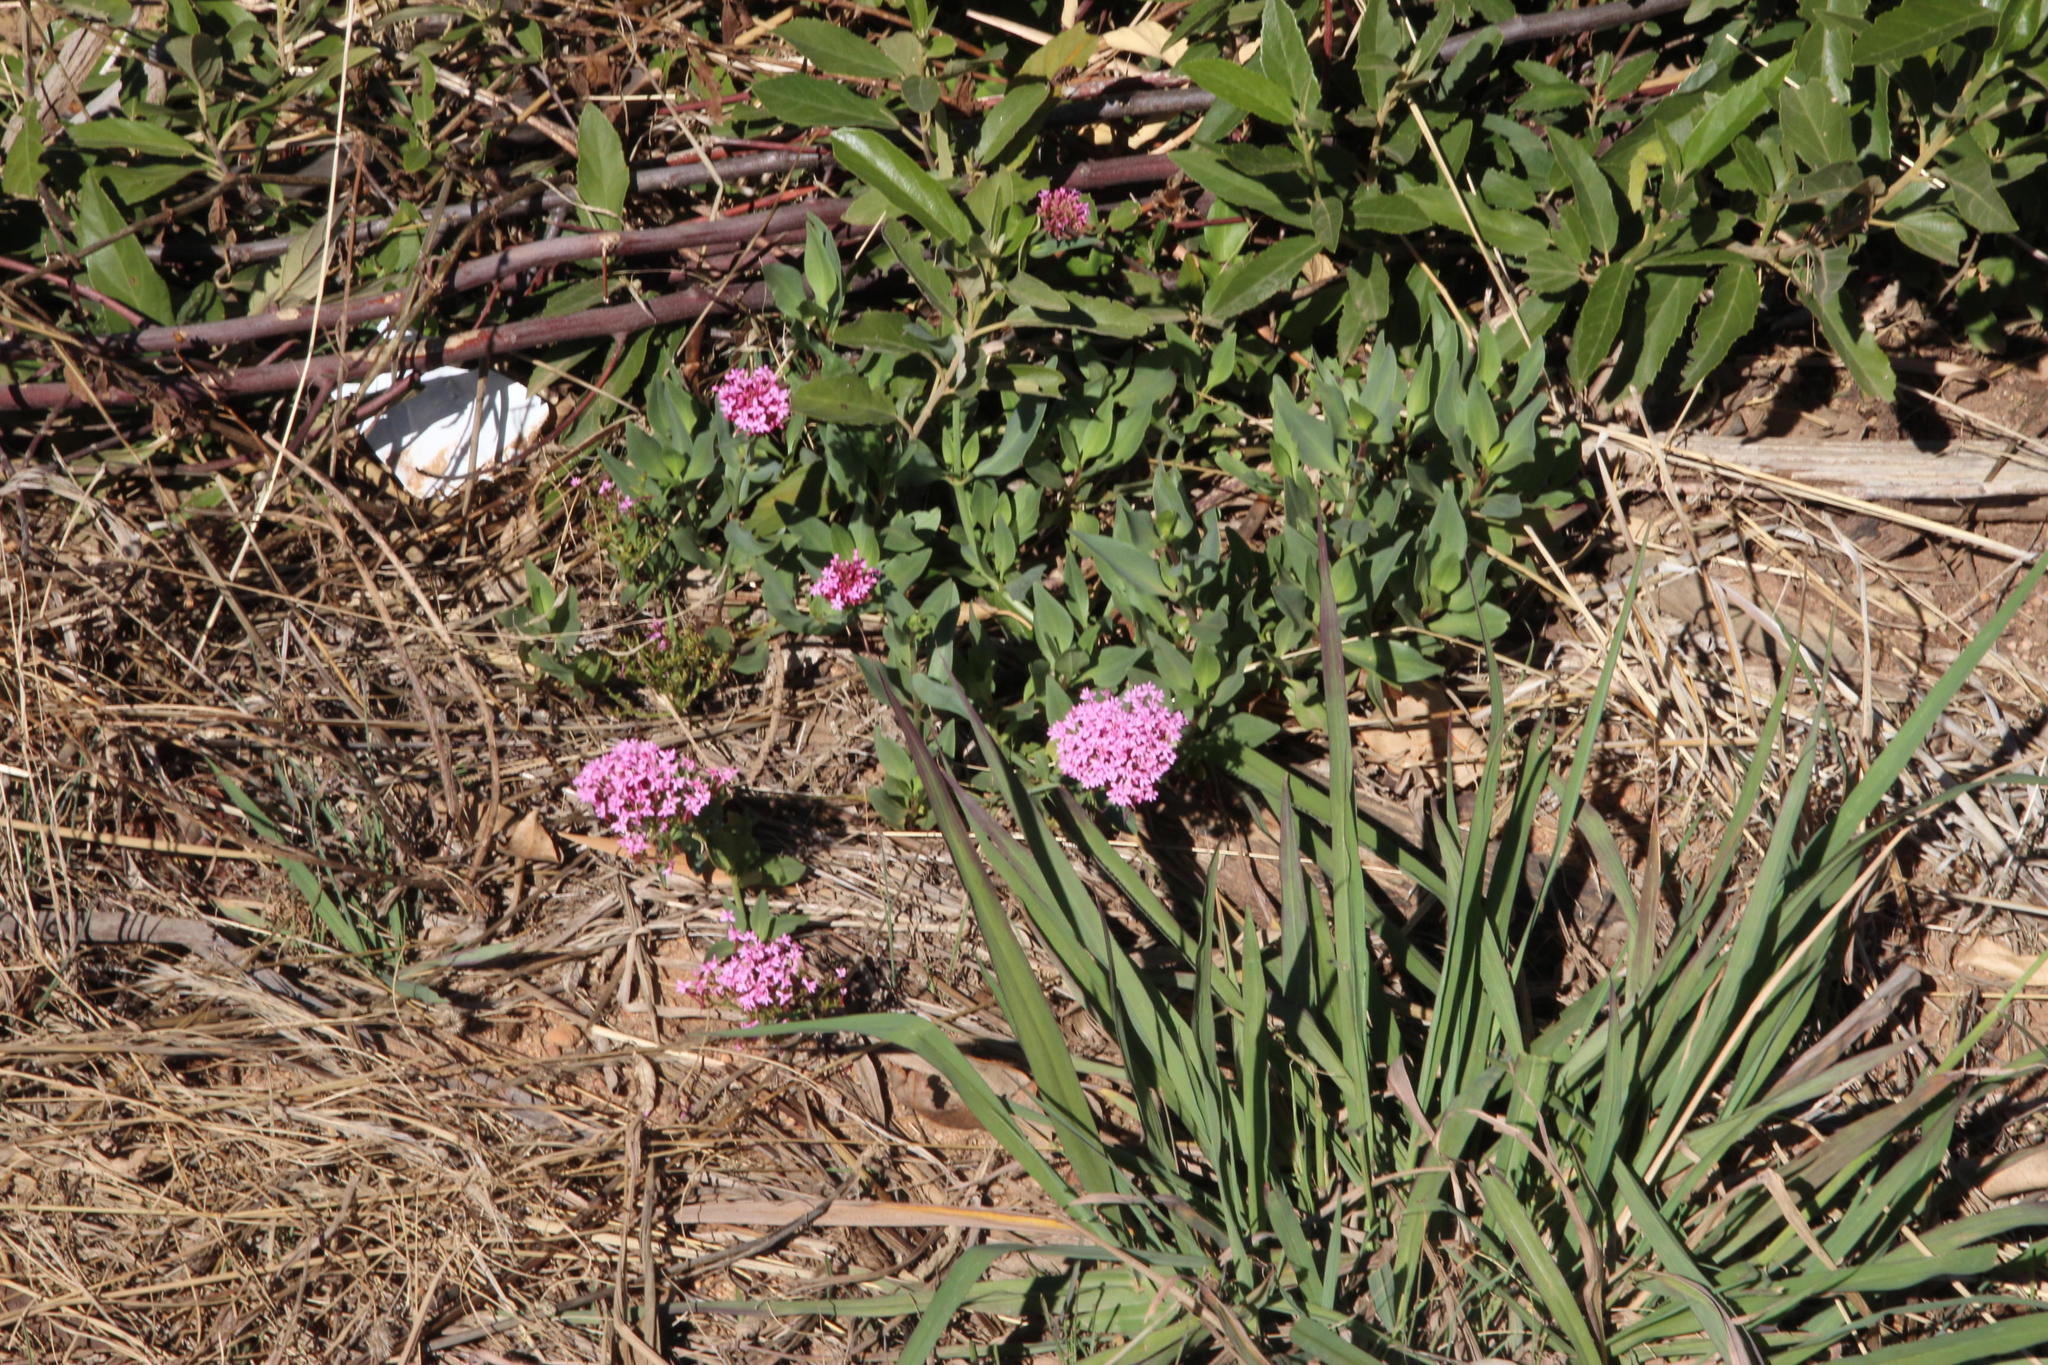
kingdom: Plantae
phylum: Tracheophyta
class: Magnoliopsida
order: Dipsacales
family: Caprifoliaceae
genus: Centranthus
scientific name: Centranthus ruber
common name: Red valerian
